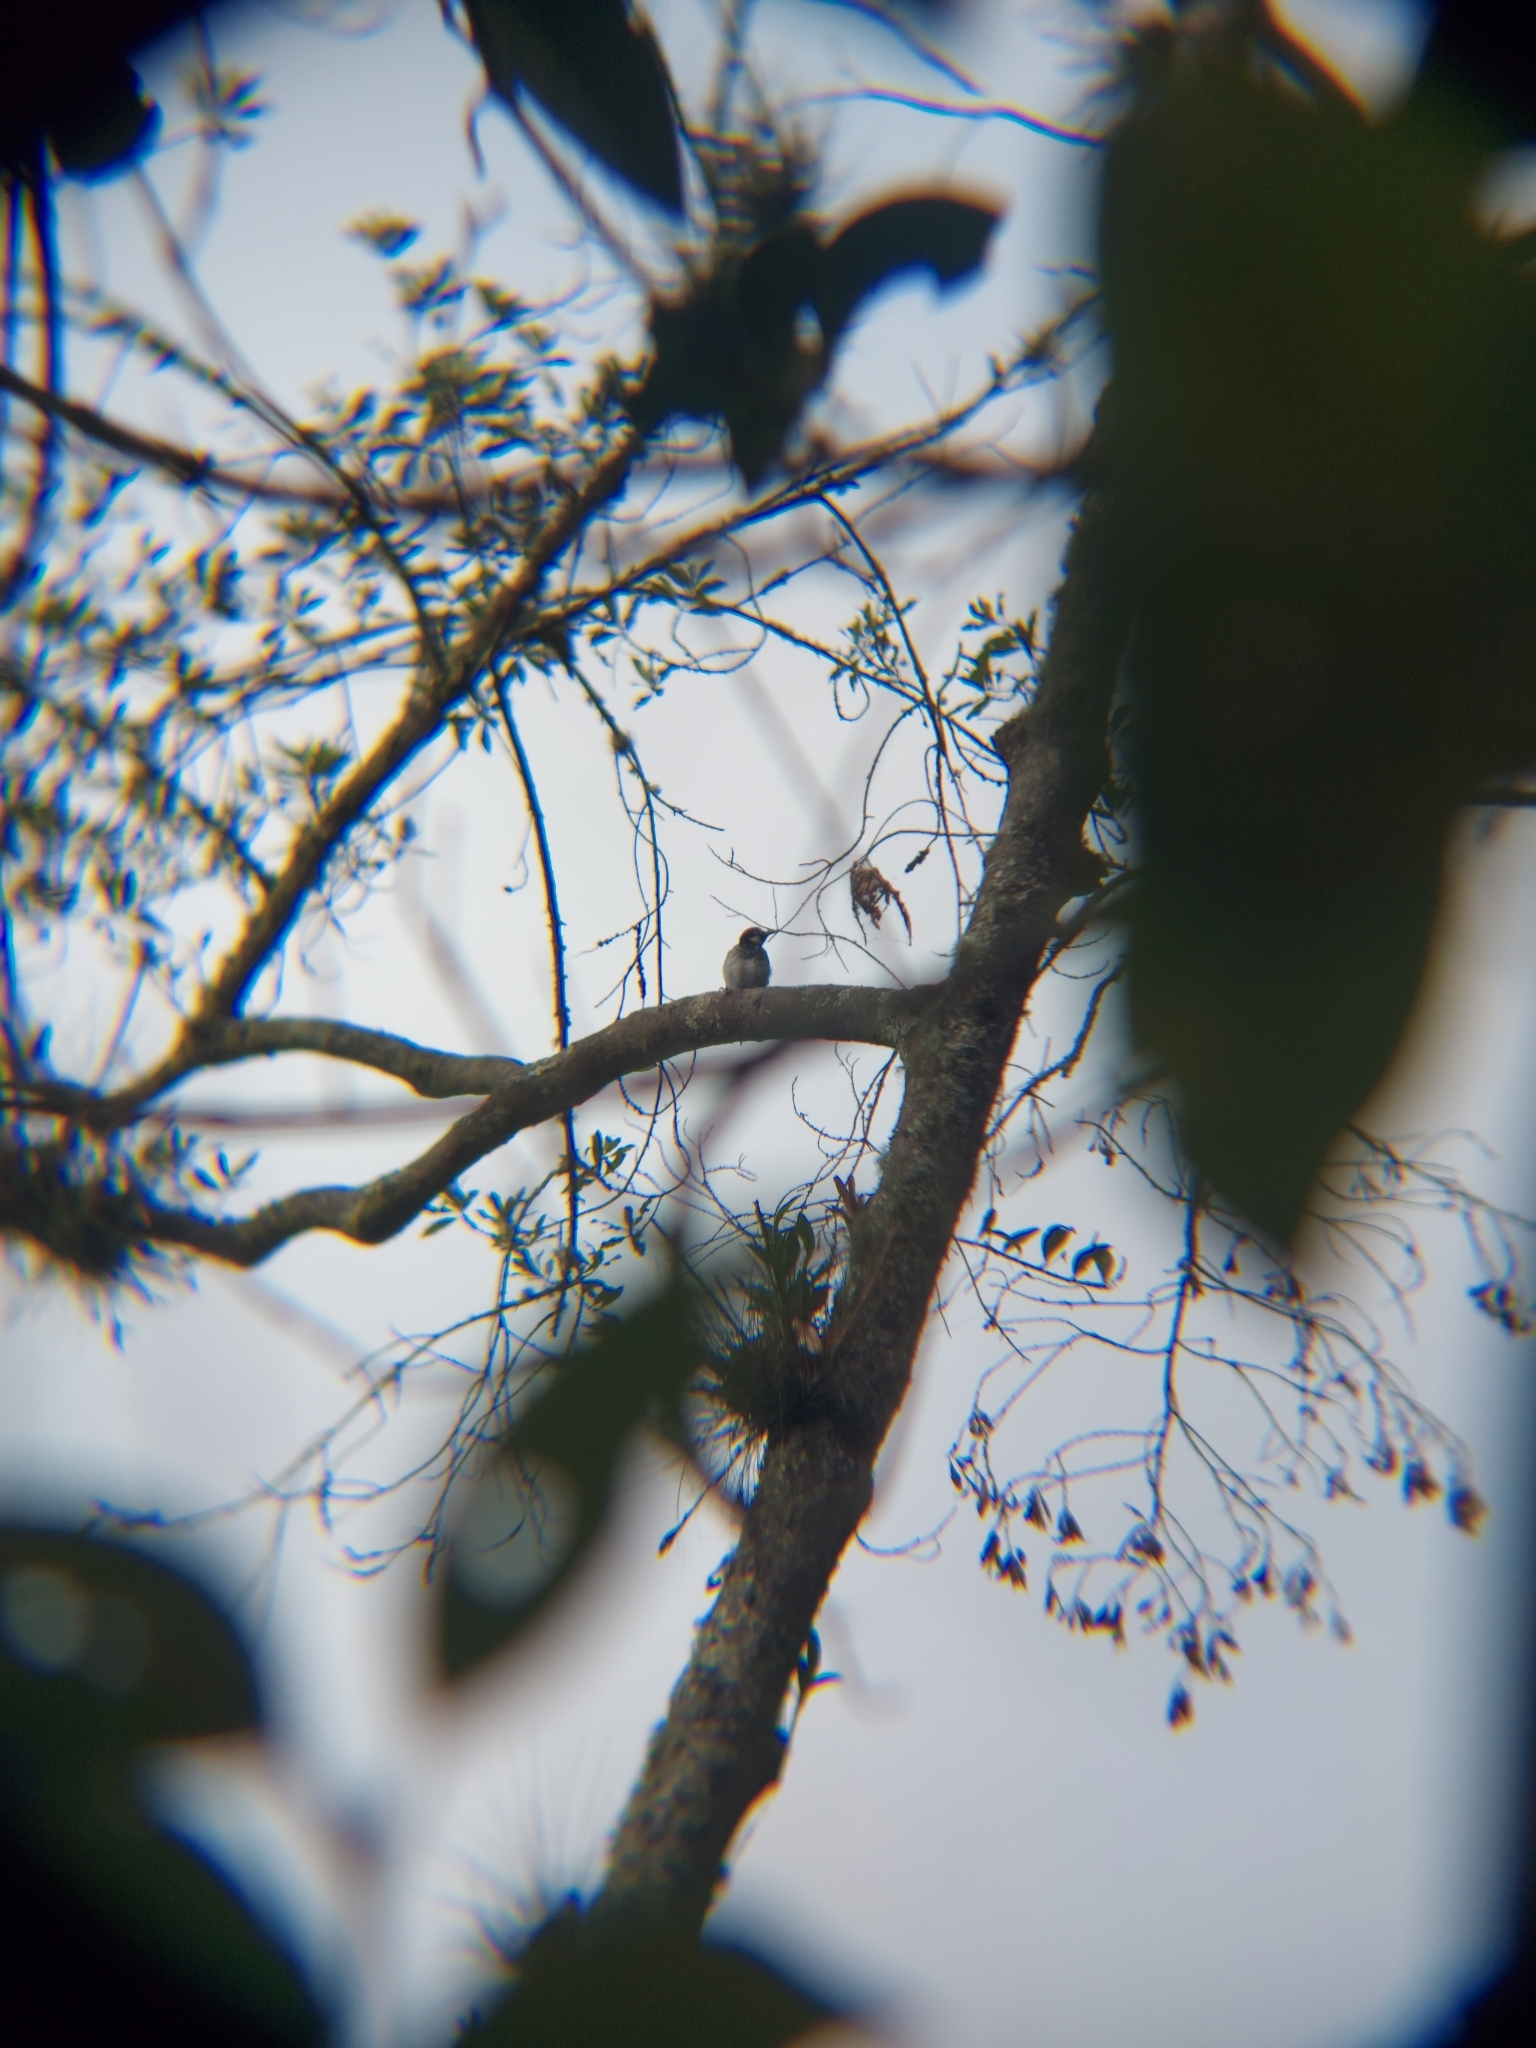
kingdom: Animalia
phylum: Chordata
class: Aves
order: Piciformes
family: Picidae
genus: Melanerpes
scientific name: Melanerpes formicivorus
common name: Acorn woodpecker
